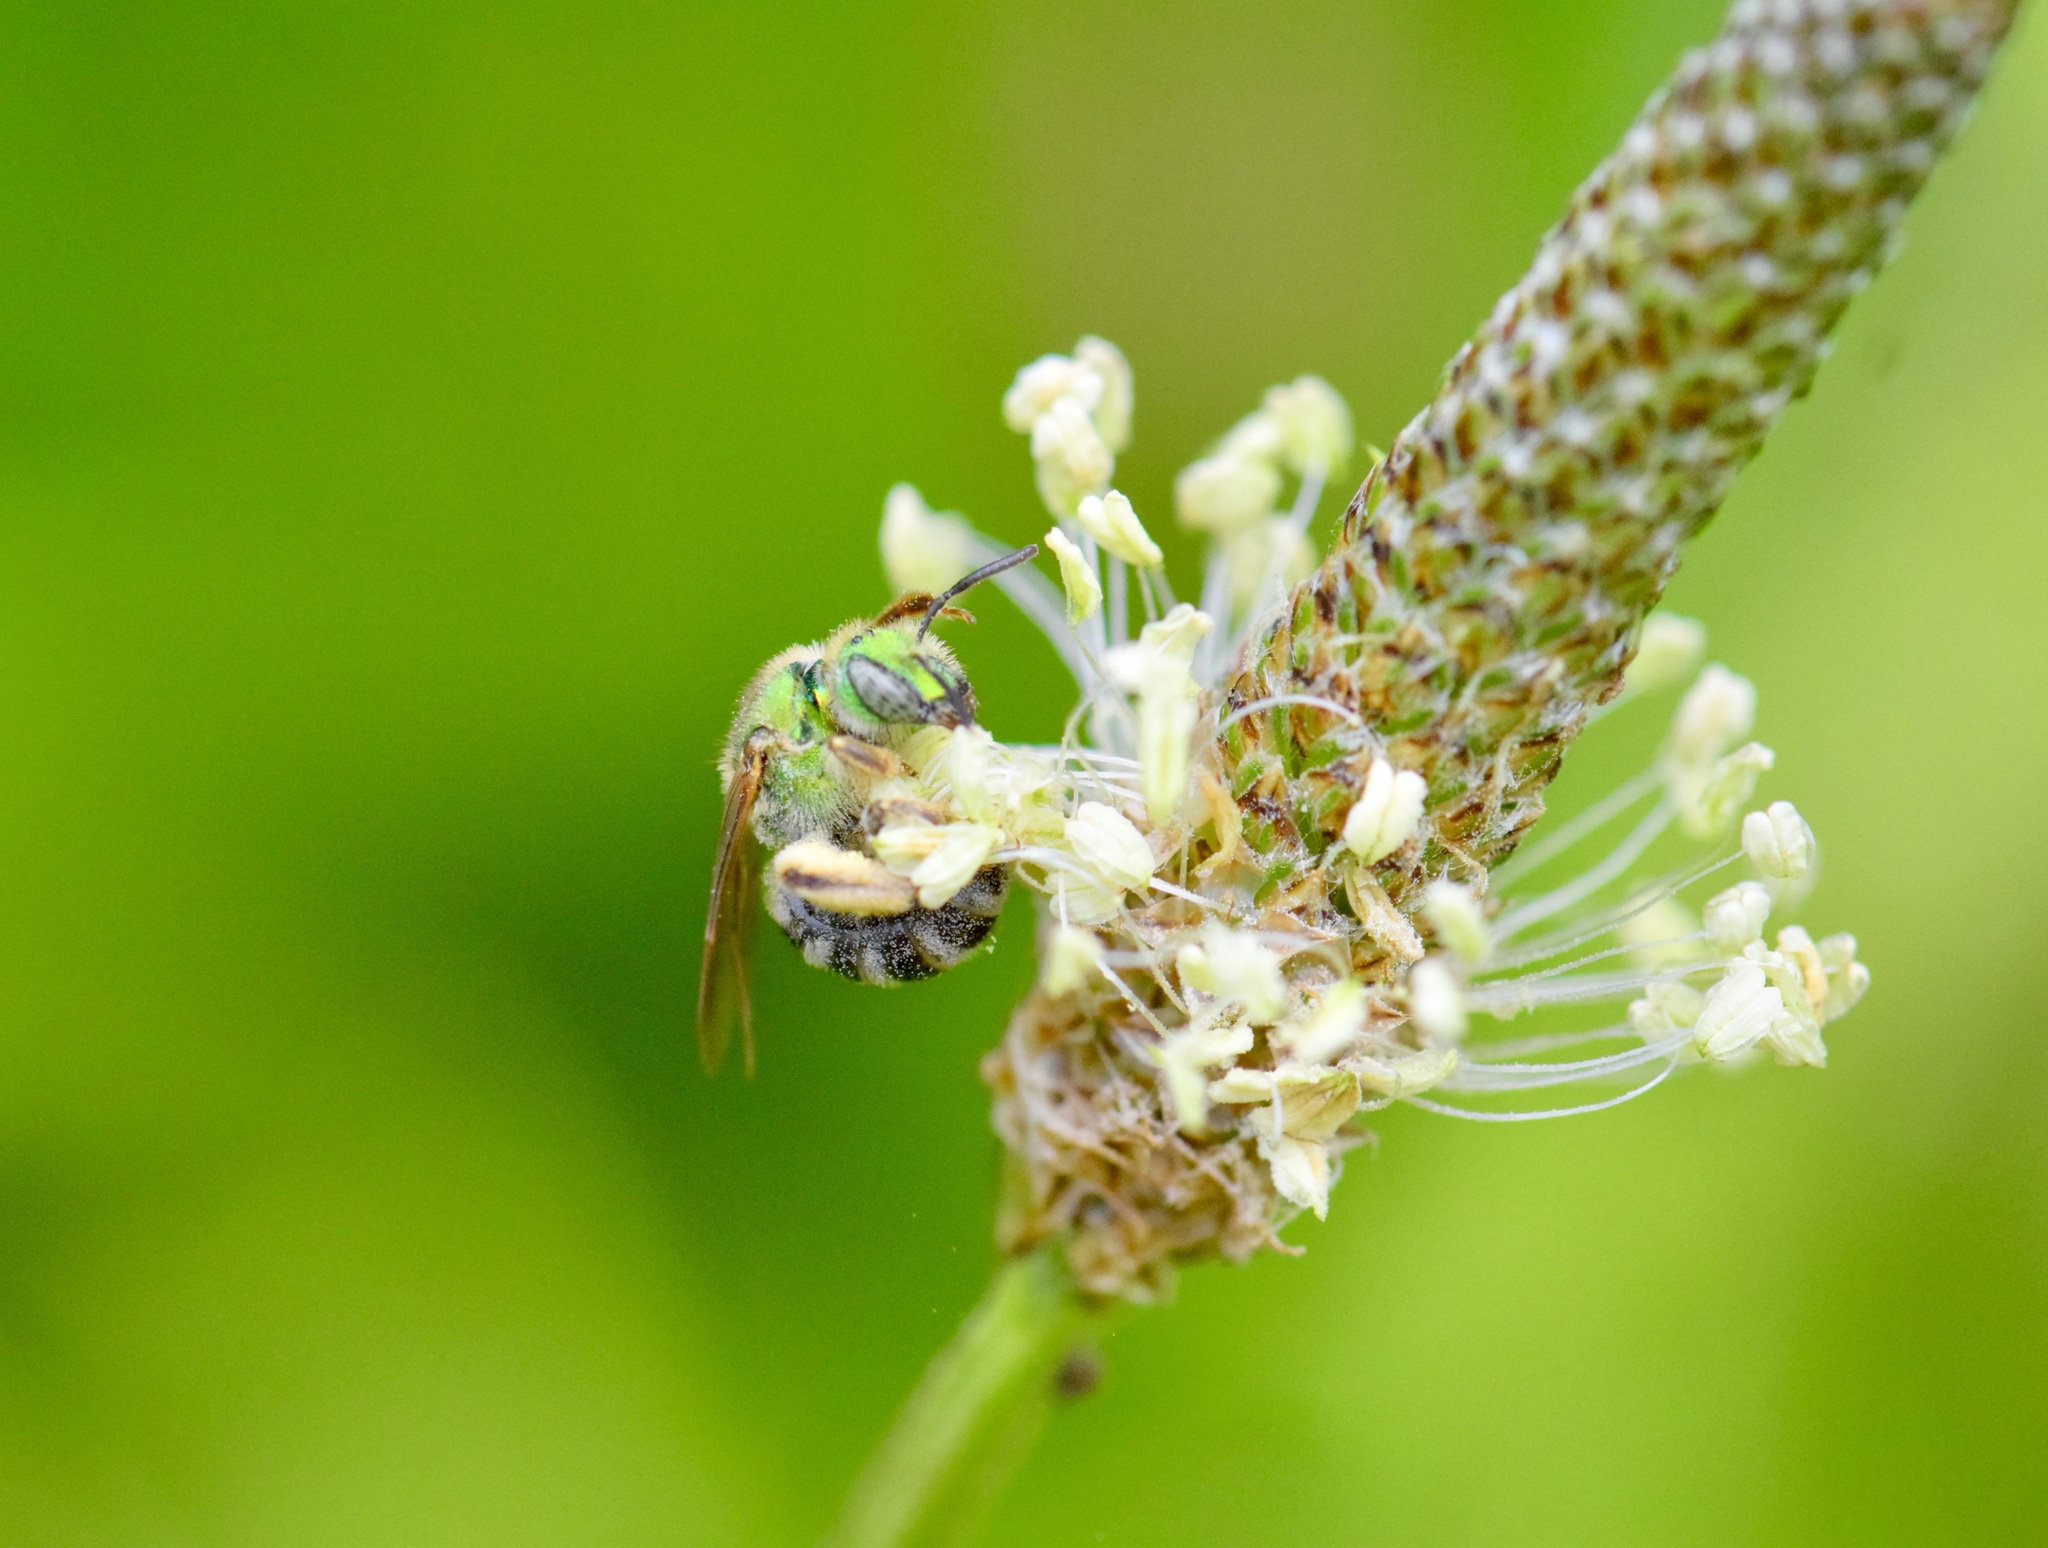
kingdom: Animalia
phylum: Arthropoda
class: Insecta
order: Hymenoptera
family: Halictidae
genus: Agapostemon
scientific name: Agapostemon virescens
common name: Bicolored striped sweat bee
